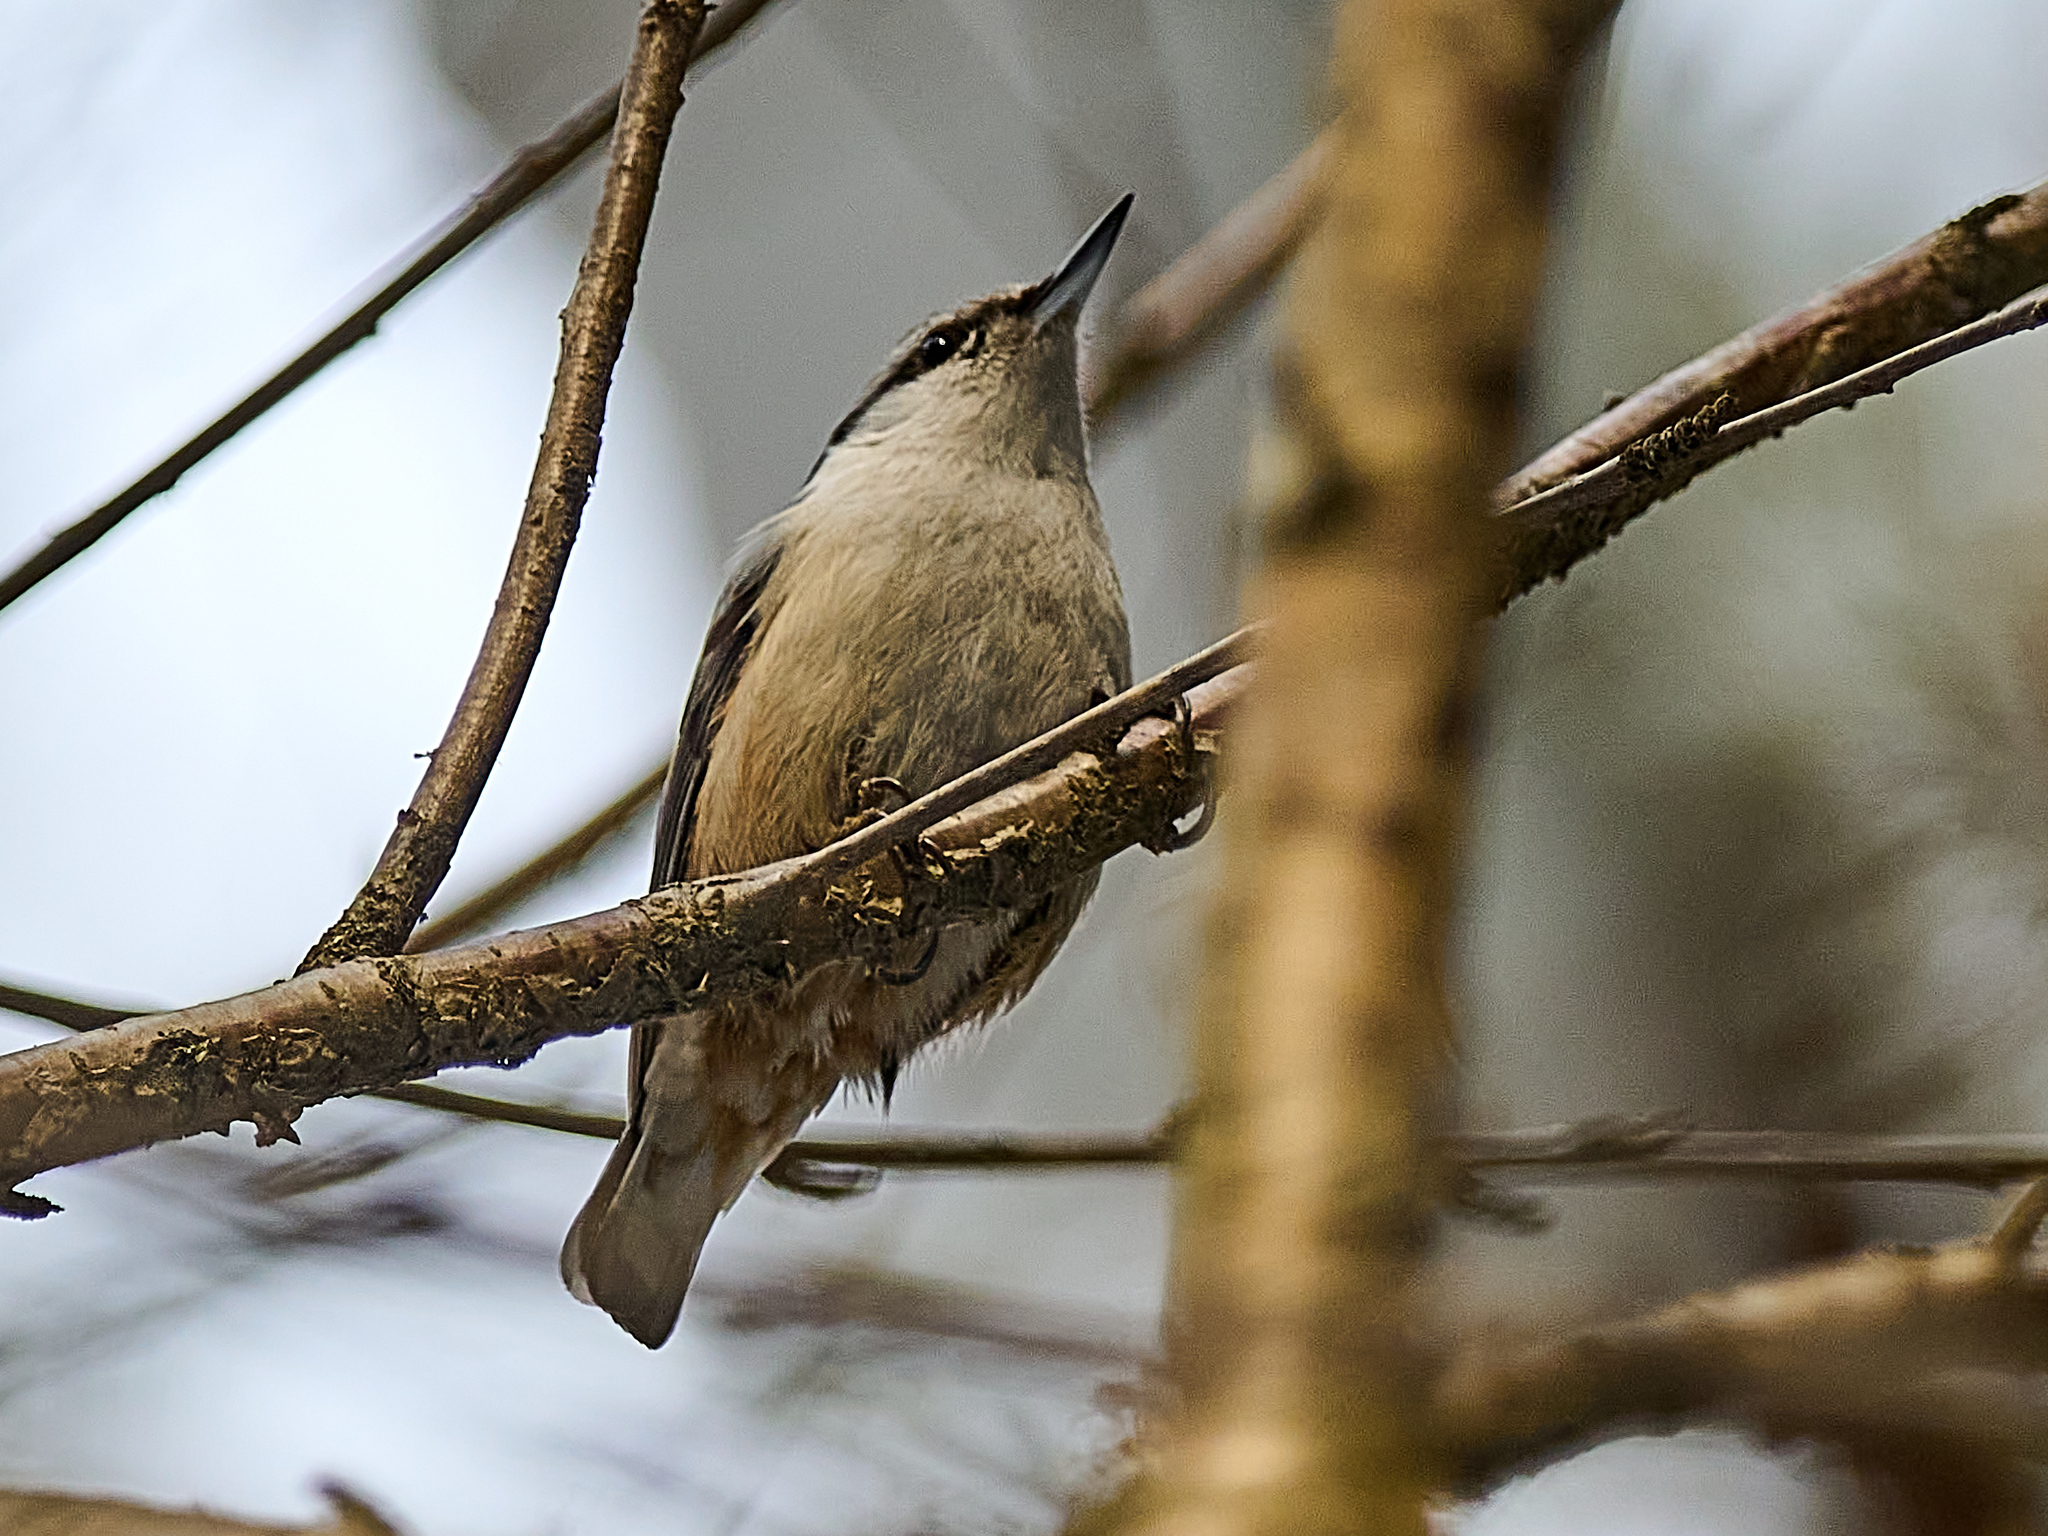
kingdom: Animalia
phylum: Chordata
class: Aves
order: Passeriformes
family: Sittidae
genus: Sitta
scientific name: Sitta europaea
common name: Eurasian nuthatch
